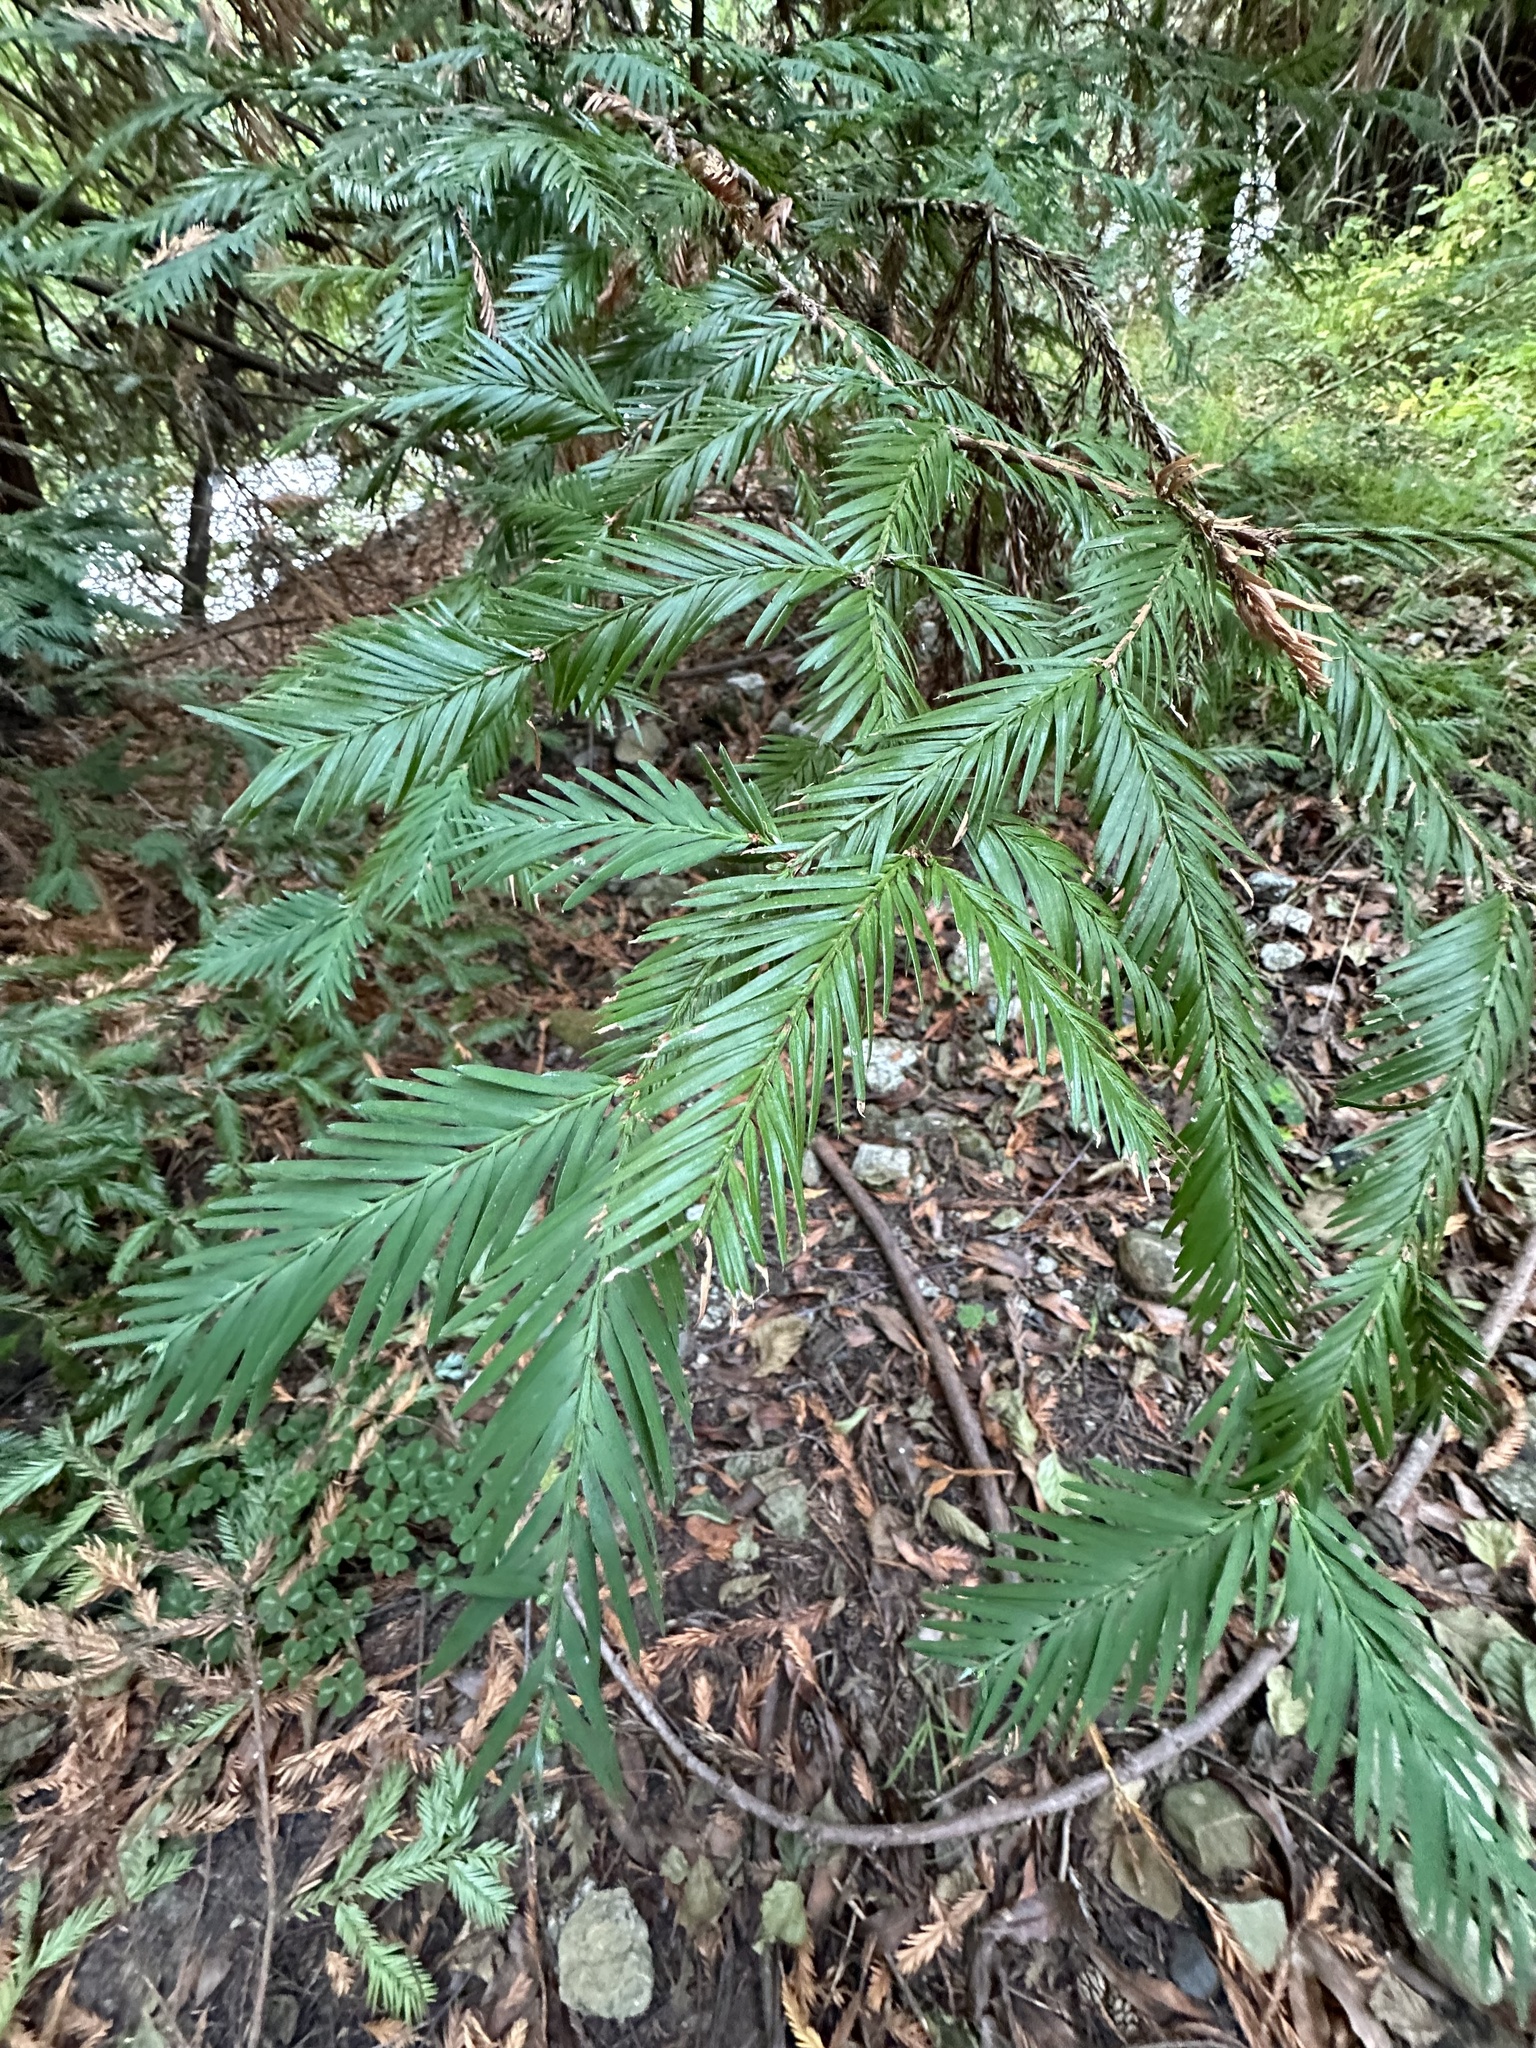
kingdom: Plantae
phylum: Tracheophyta
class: Pinopsida
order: Pinales
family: Cupressaceae
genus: Sequoia
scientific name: Sequoia sempervirens
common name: Coast redwood
